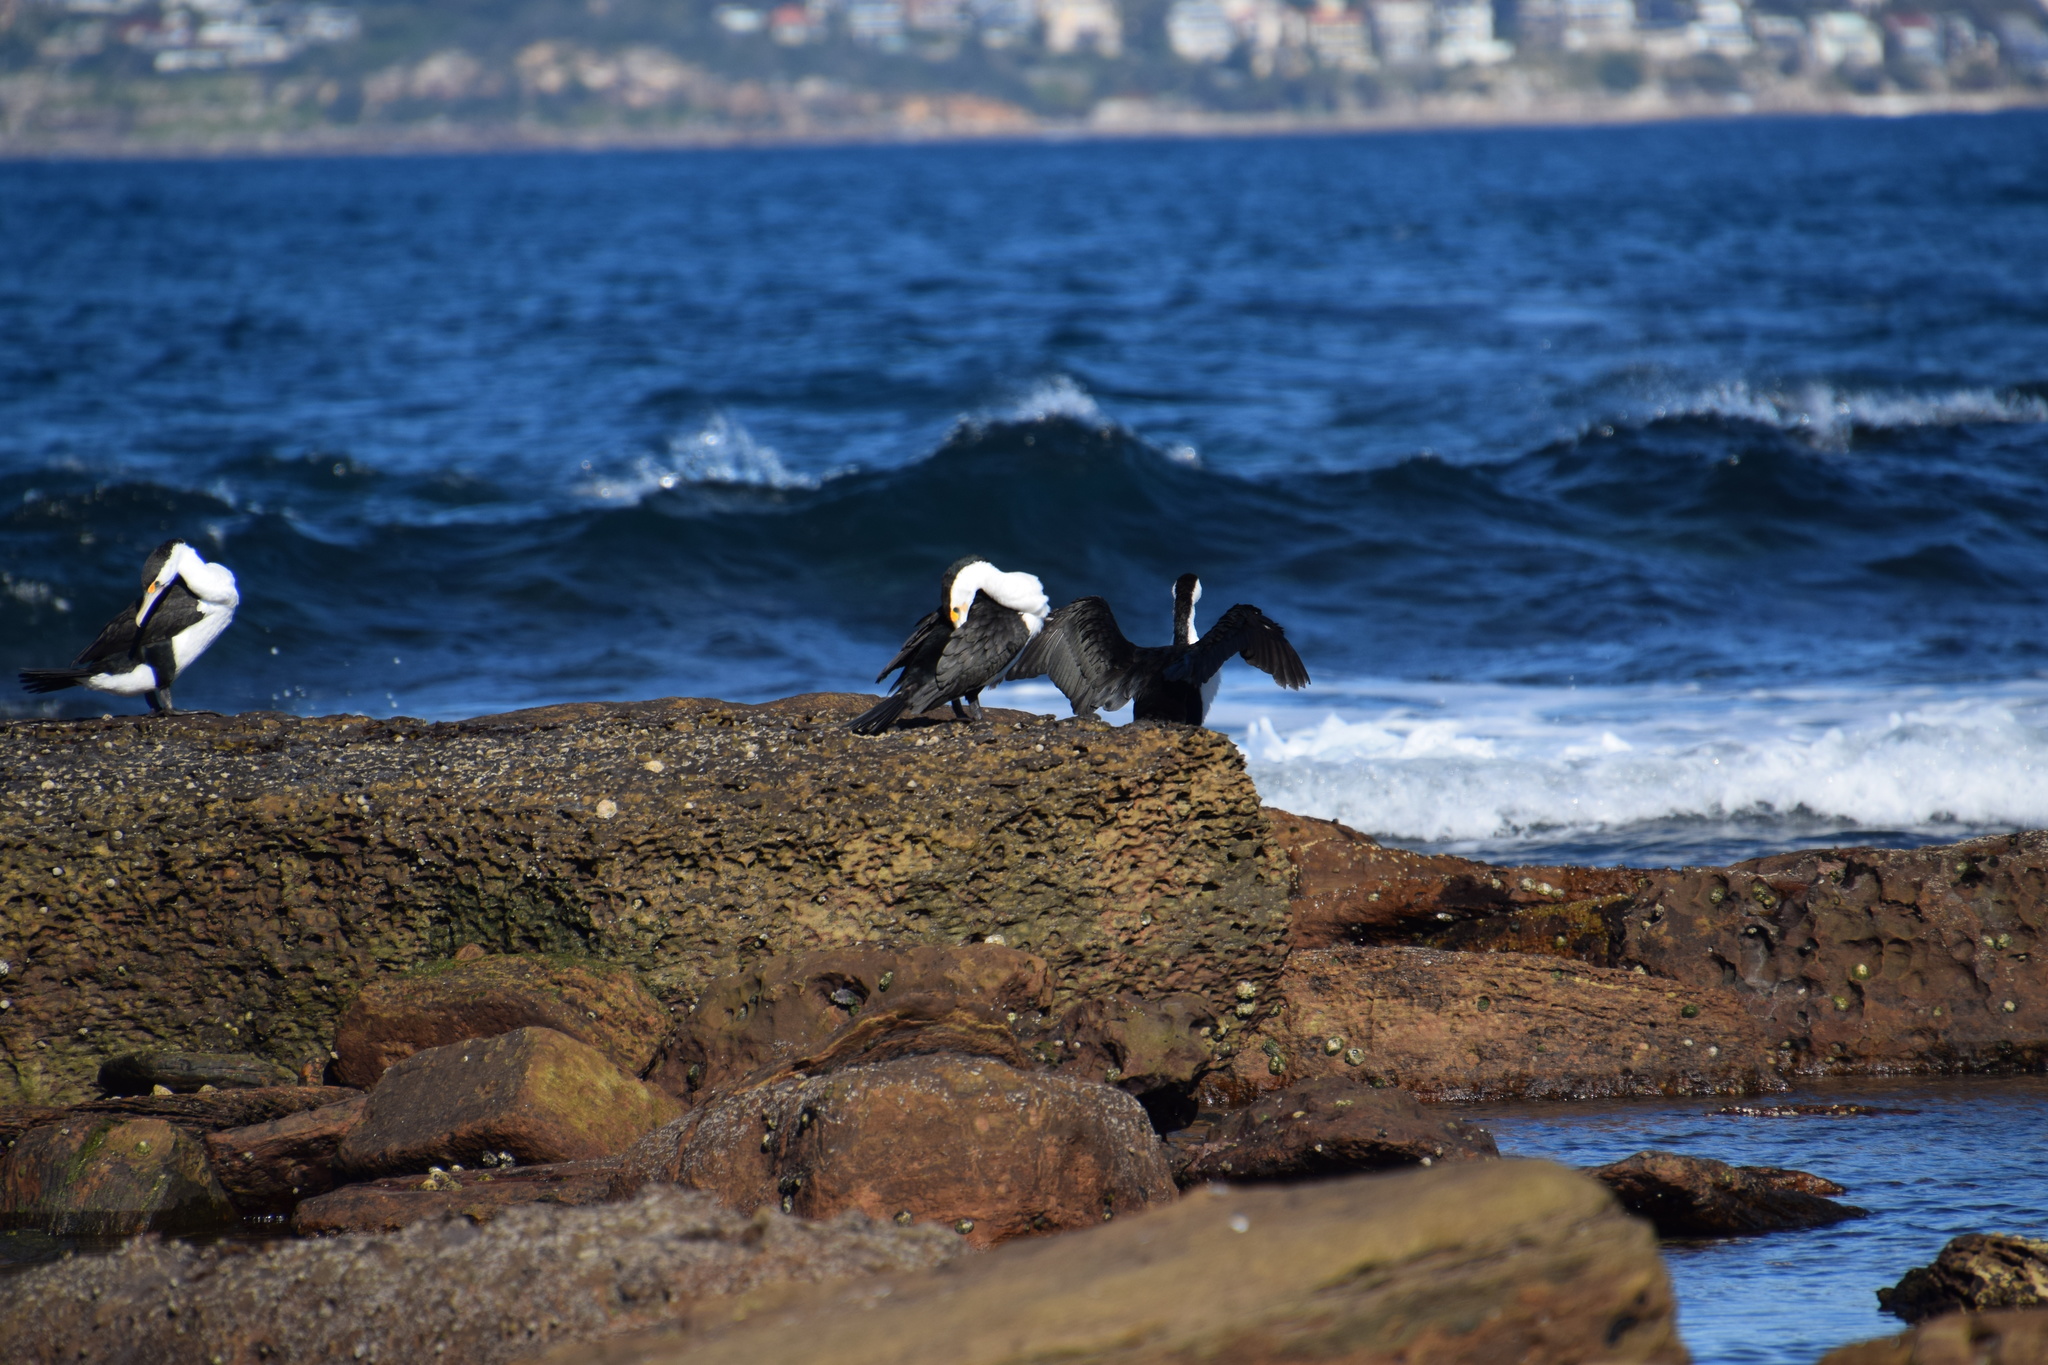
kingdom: Animalia
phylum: Chordata
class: Aves
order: Suliformes
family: Phalacrocoracidae
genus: Phalacrocorax
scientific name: Phalacrocorax varius
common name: Pied cormorant
